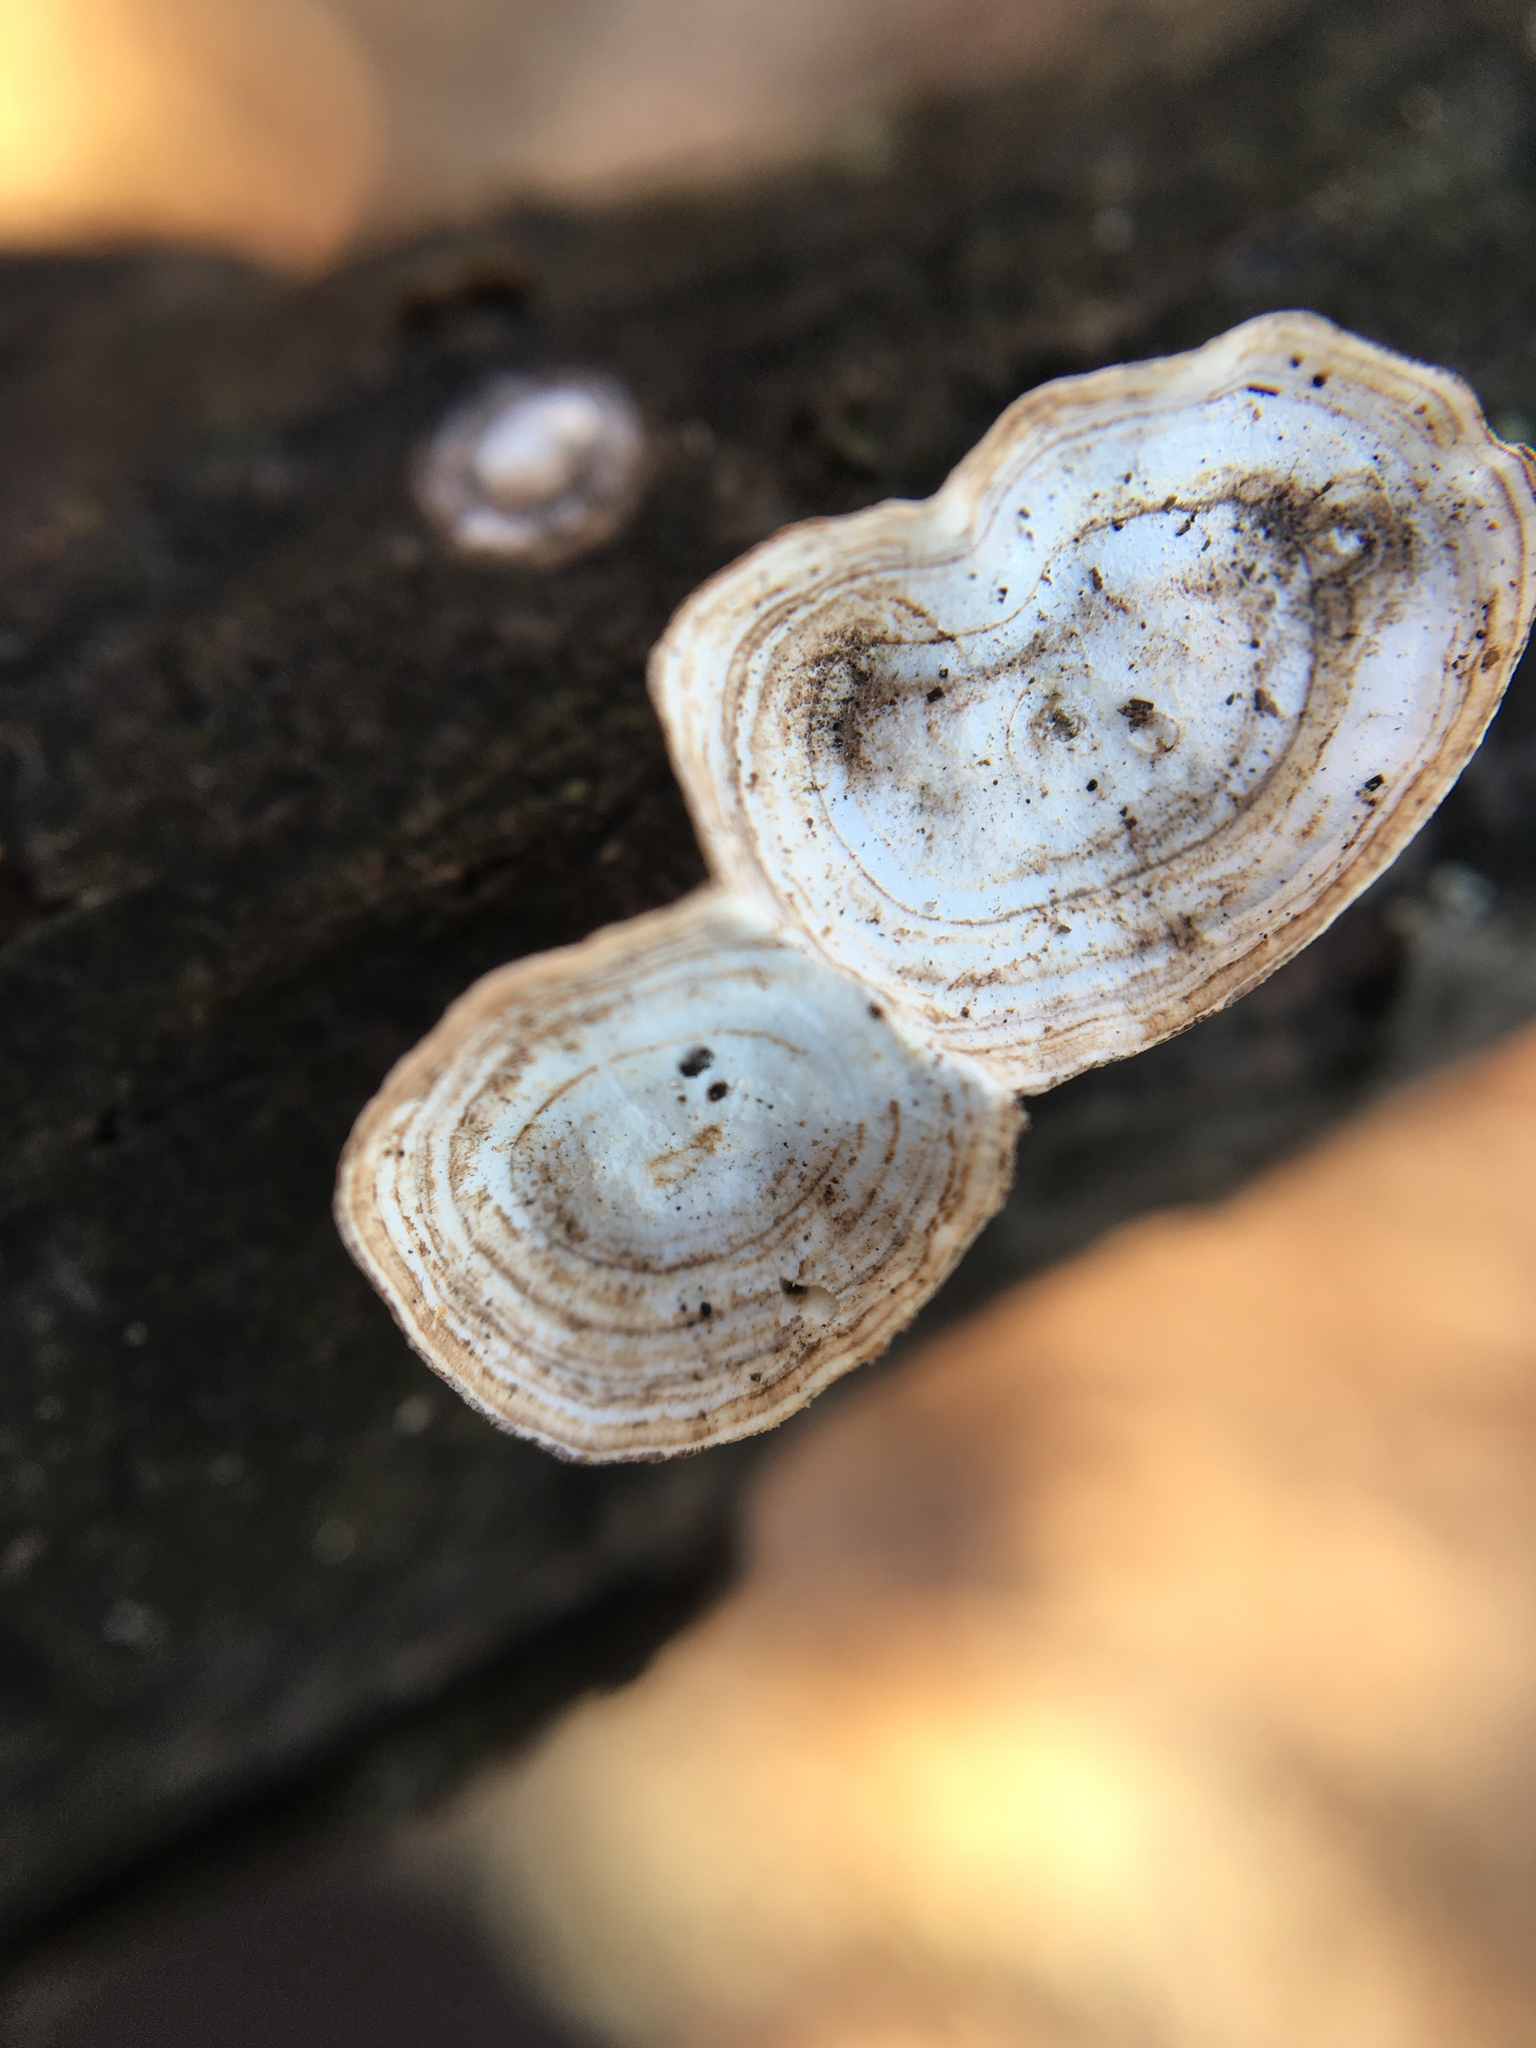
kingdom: Fungi
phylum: Basidiomycota
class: Agaricomycetes
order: Polyporales
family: Polyporaceae
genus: Poronidulus
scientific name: Poronidulus conchifer
